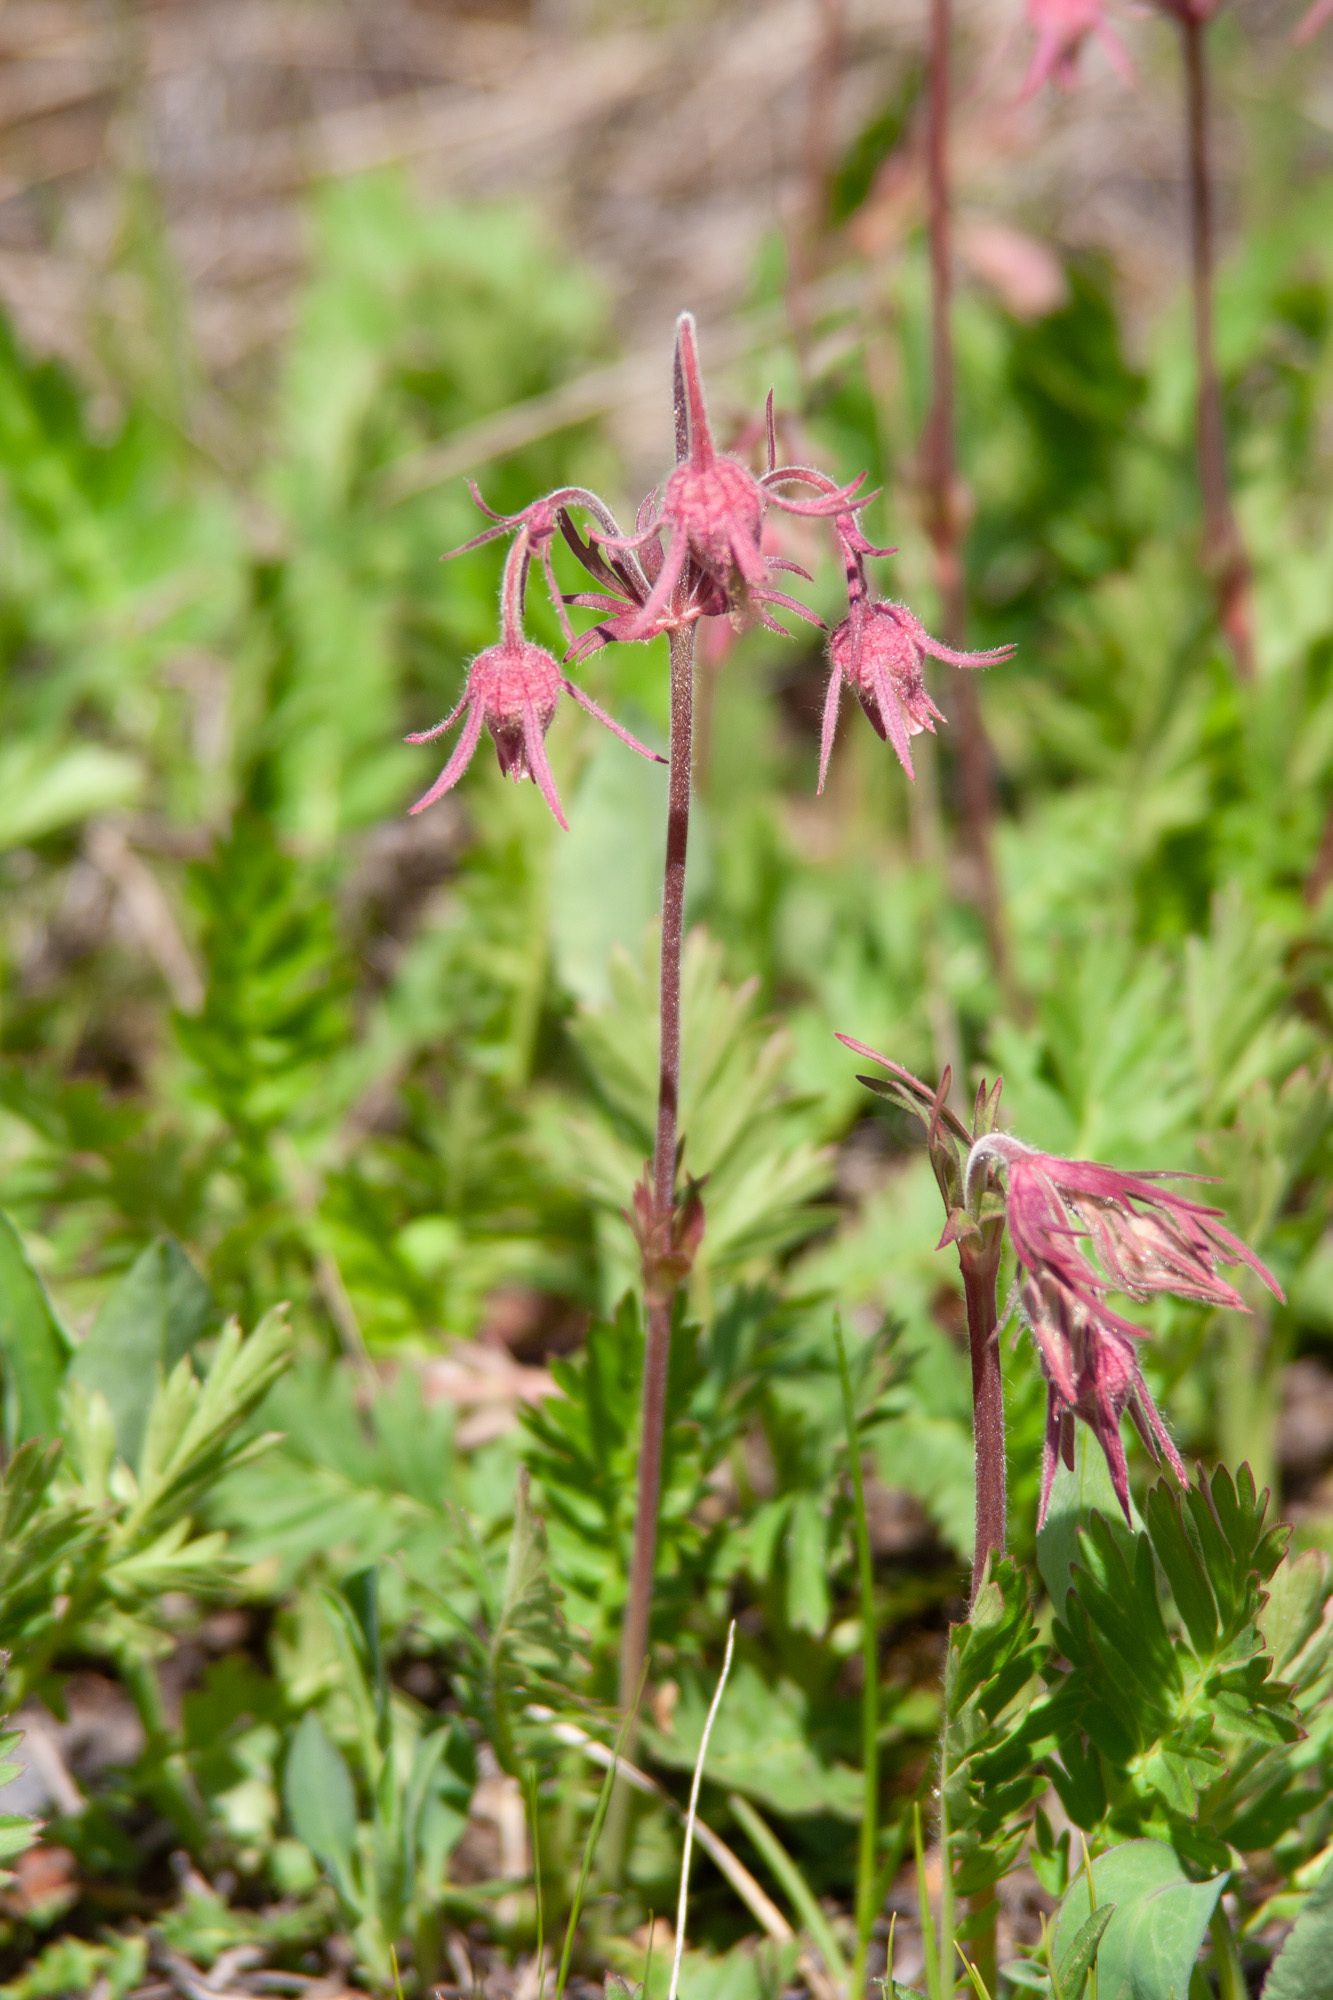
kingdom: Plantae
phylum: Tracheophyta
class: Magnoliopsida
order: Rosales
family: Rosaceae
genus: Geum
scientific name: Geum triflorum
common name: Old man's whiskers
